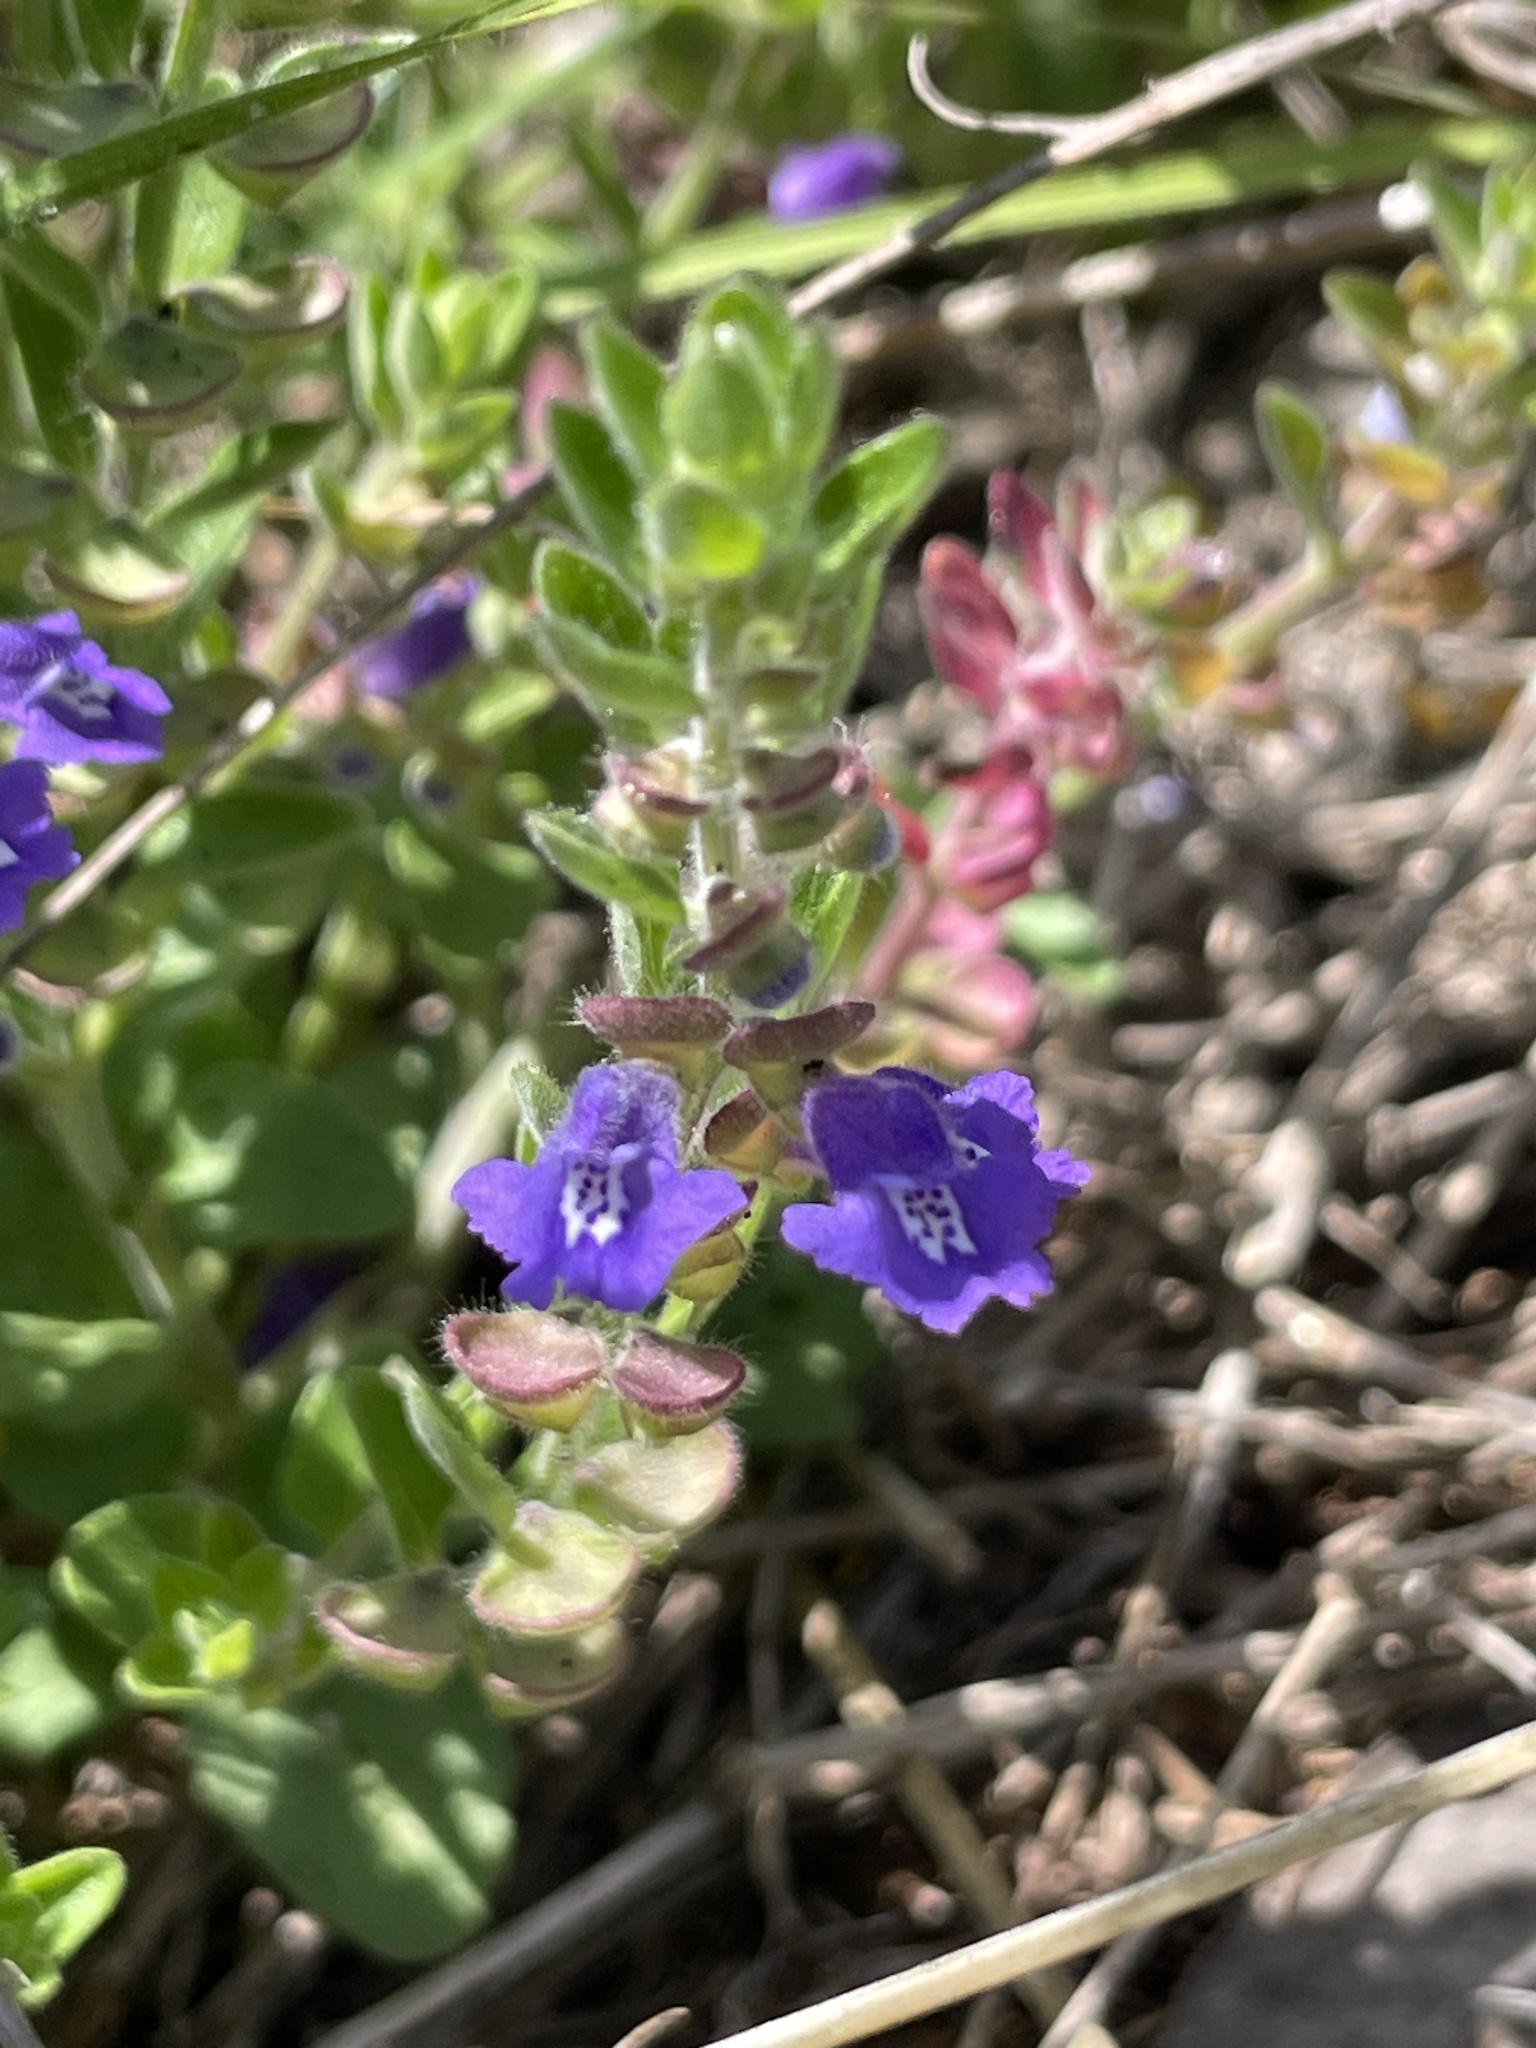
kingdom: Plantae
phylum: Tracheophyta
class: Magnoliopsida
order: Lamiales
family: Lamiaceae
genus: Scutellaria
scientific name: Scutellaria drummondii
